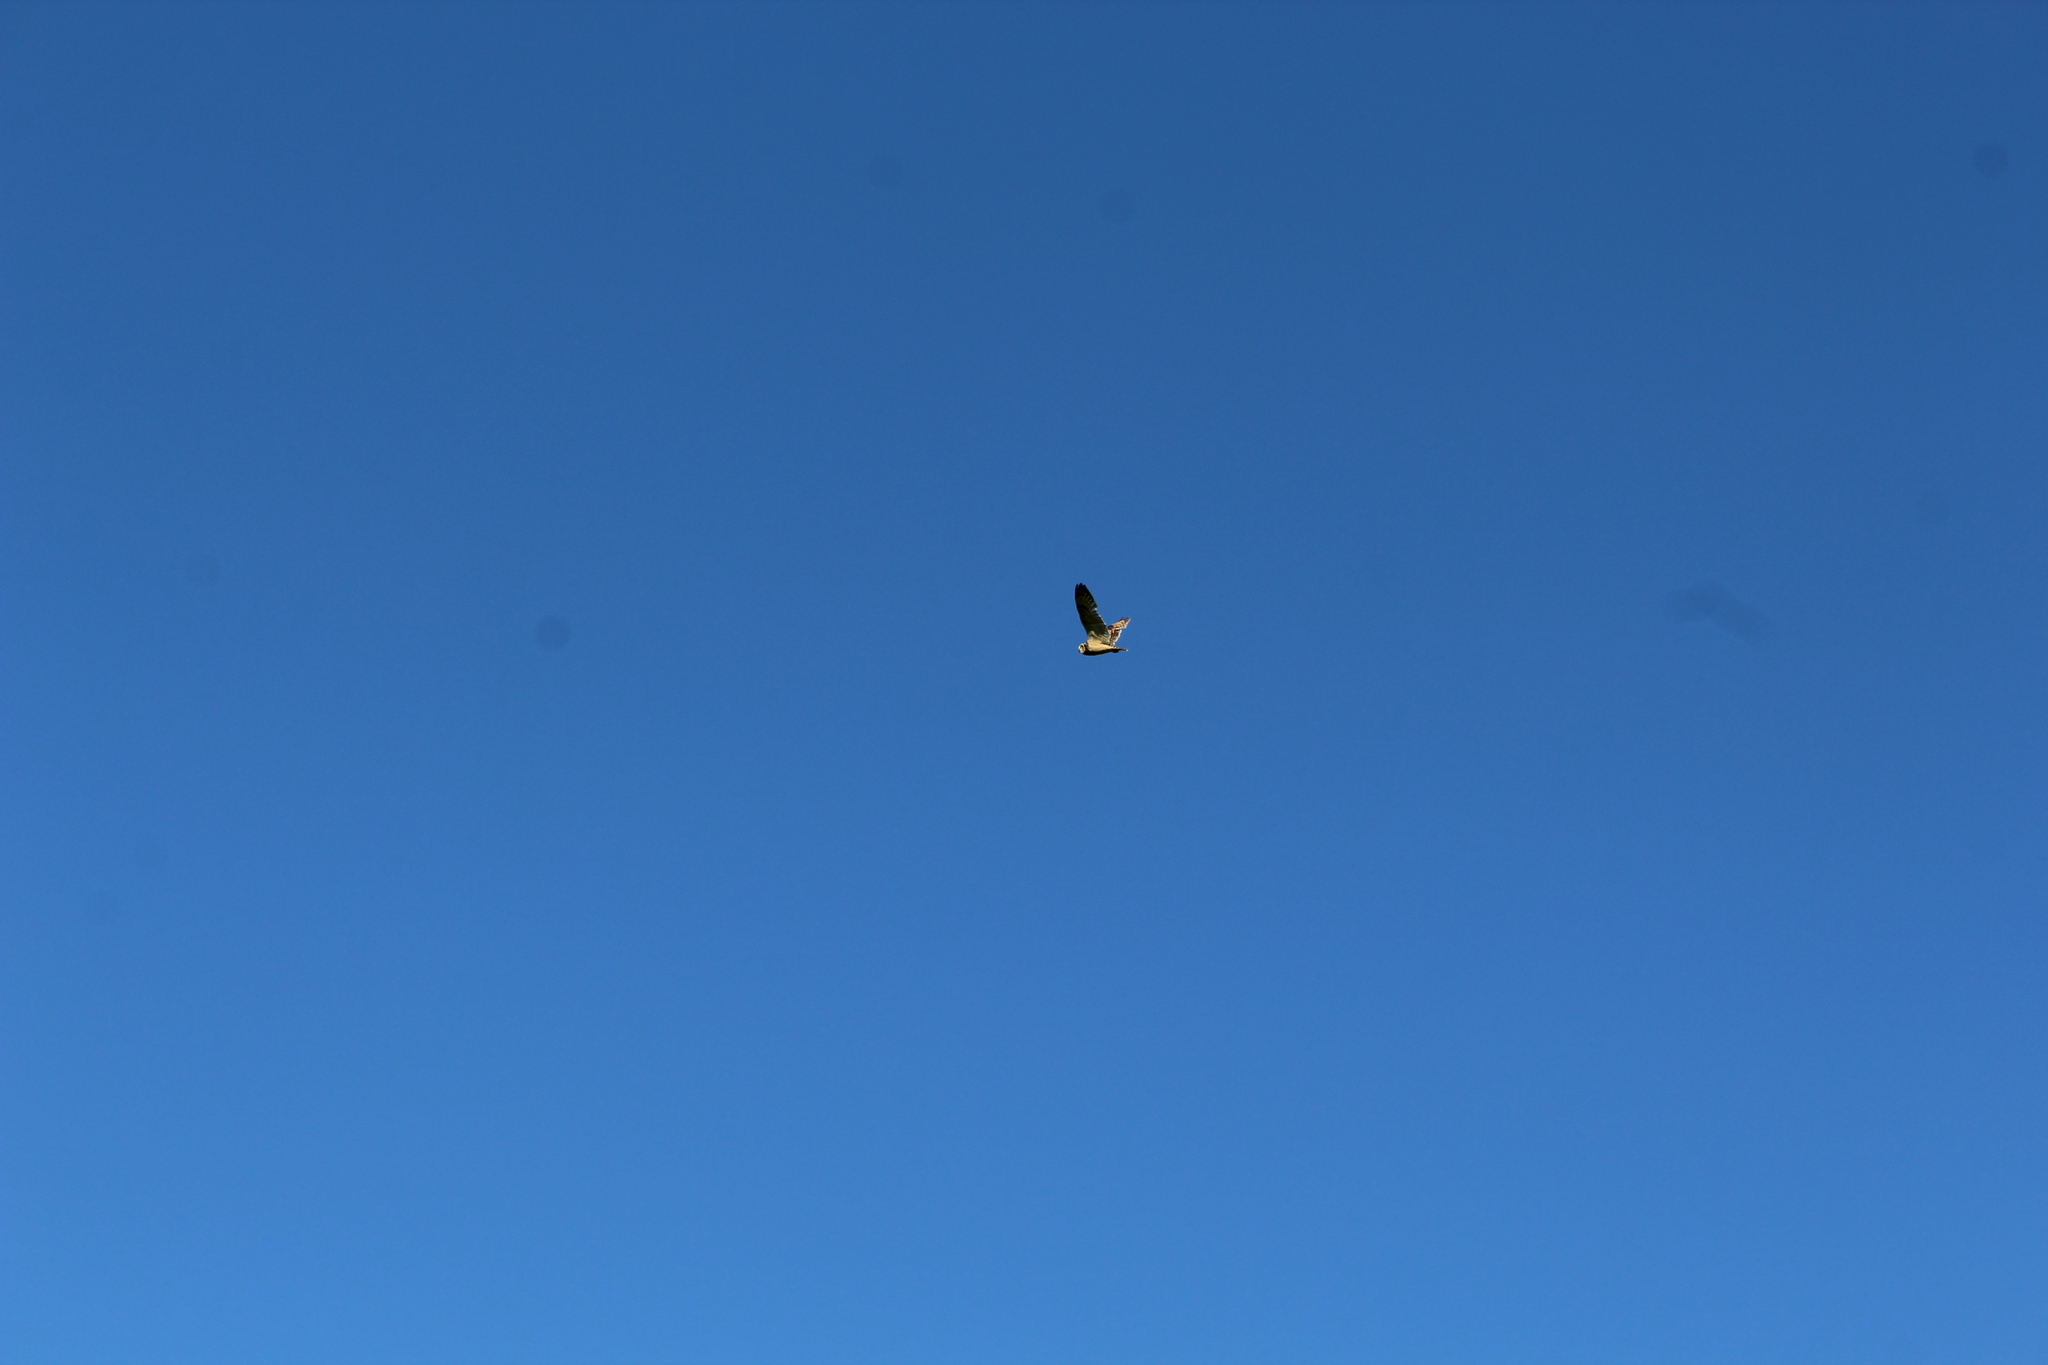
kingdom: Animalia
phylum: Chordata
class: Aves
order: Strigiformes
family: Strigidae
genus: Asio
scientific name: Asio flammeus
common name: Short-eared owl
